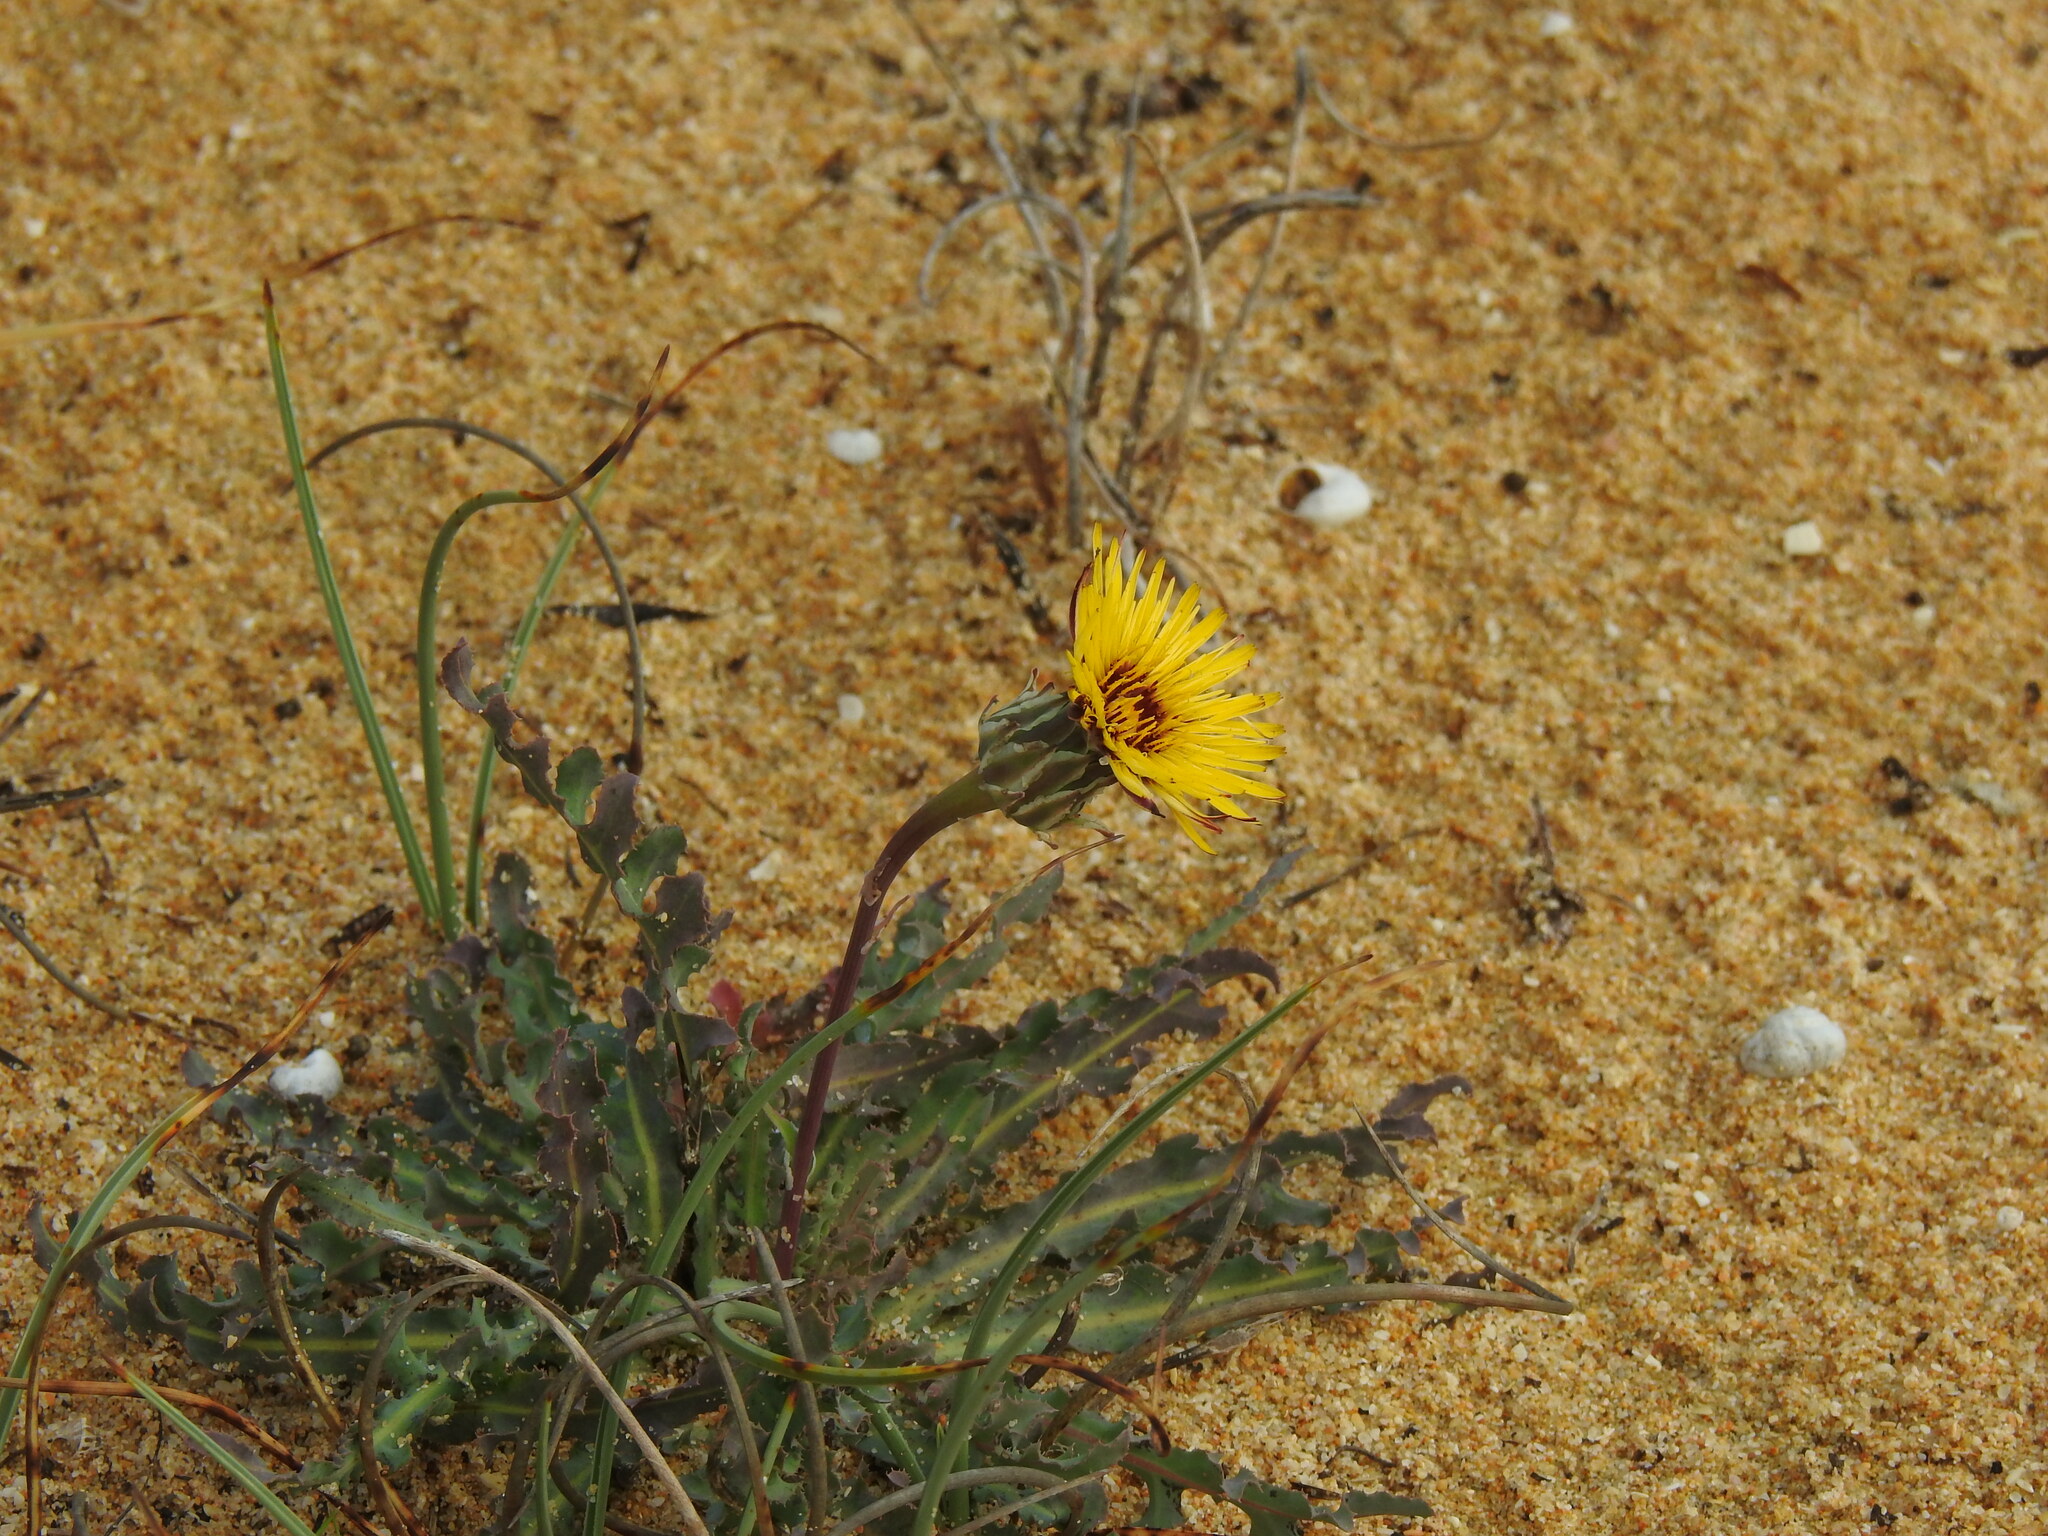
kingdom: Plantae
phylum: Tracheophyta
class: Magnoliopsida
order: Asterales
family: Asteraceae
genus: Reichardia
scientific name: Reichardia gaditana
